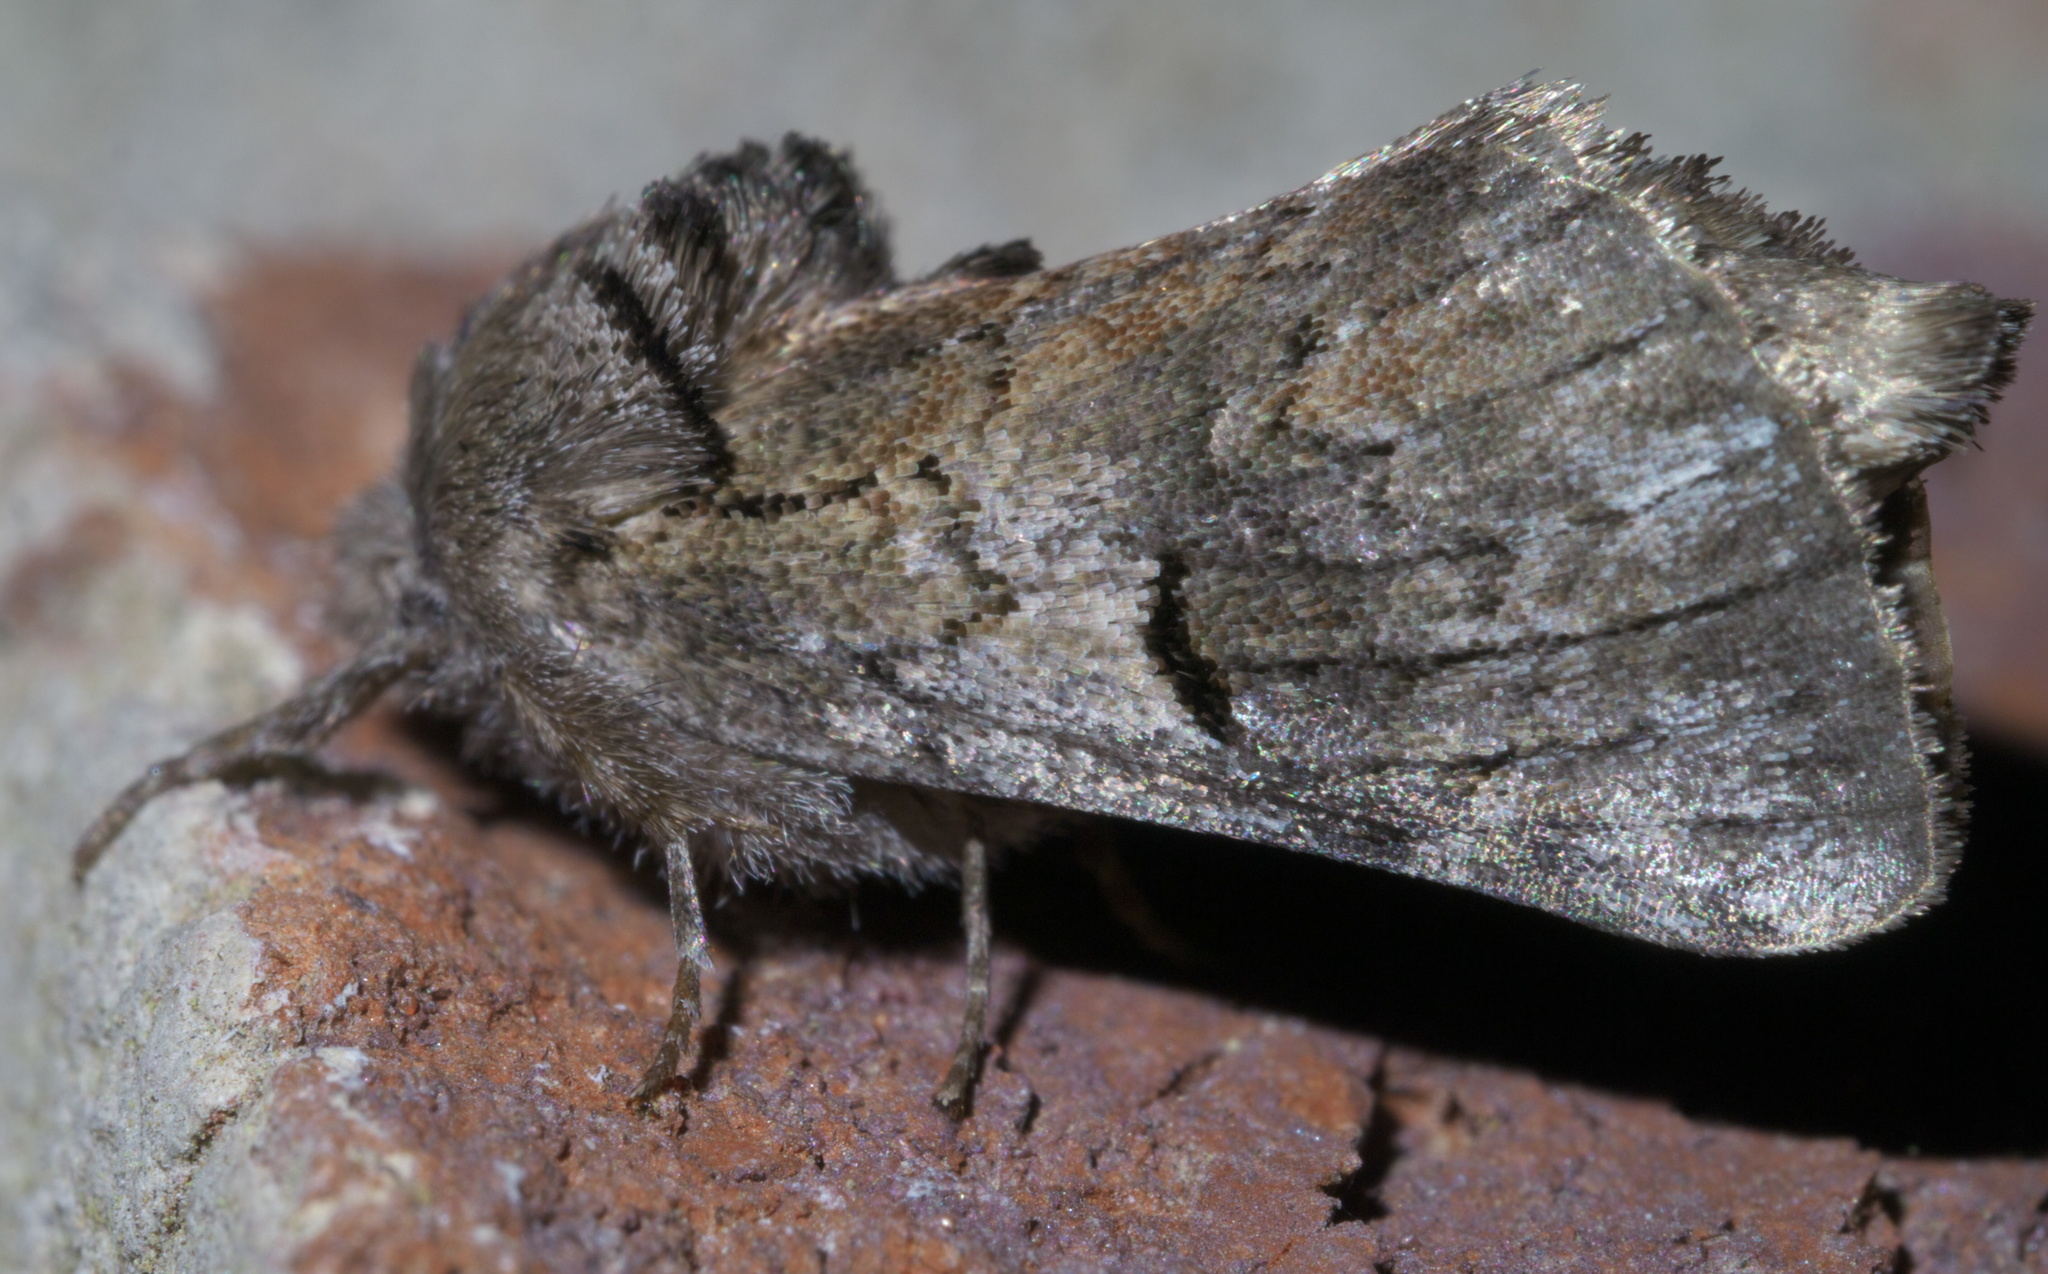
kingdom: Animalia
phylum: Arthropoda
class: Insecta
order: Lepidoptera
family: Notodontidae
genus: Schizura
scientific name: Schizura
